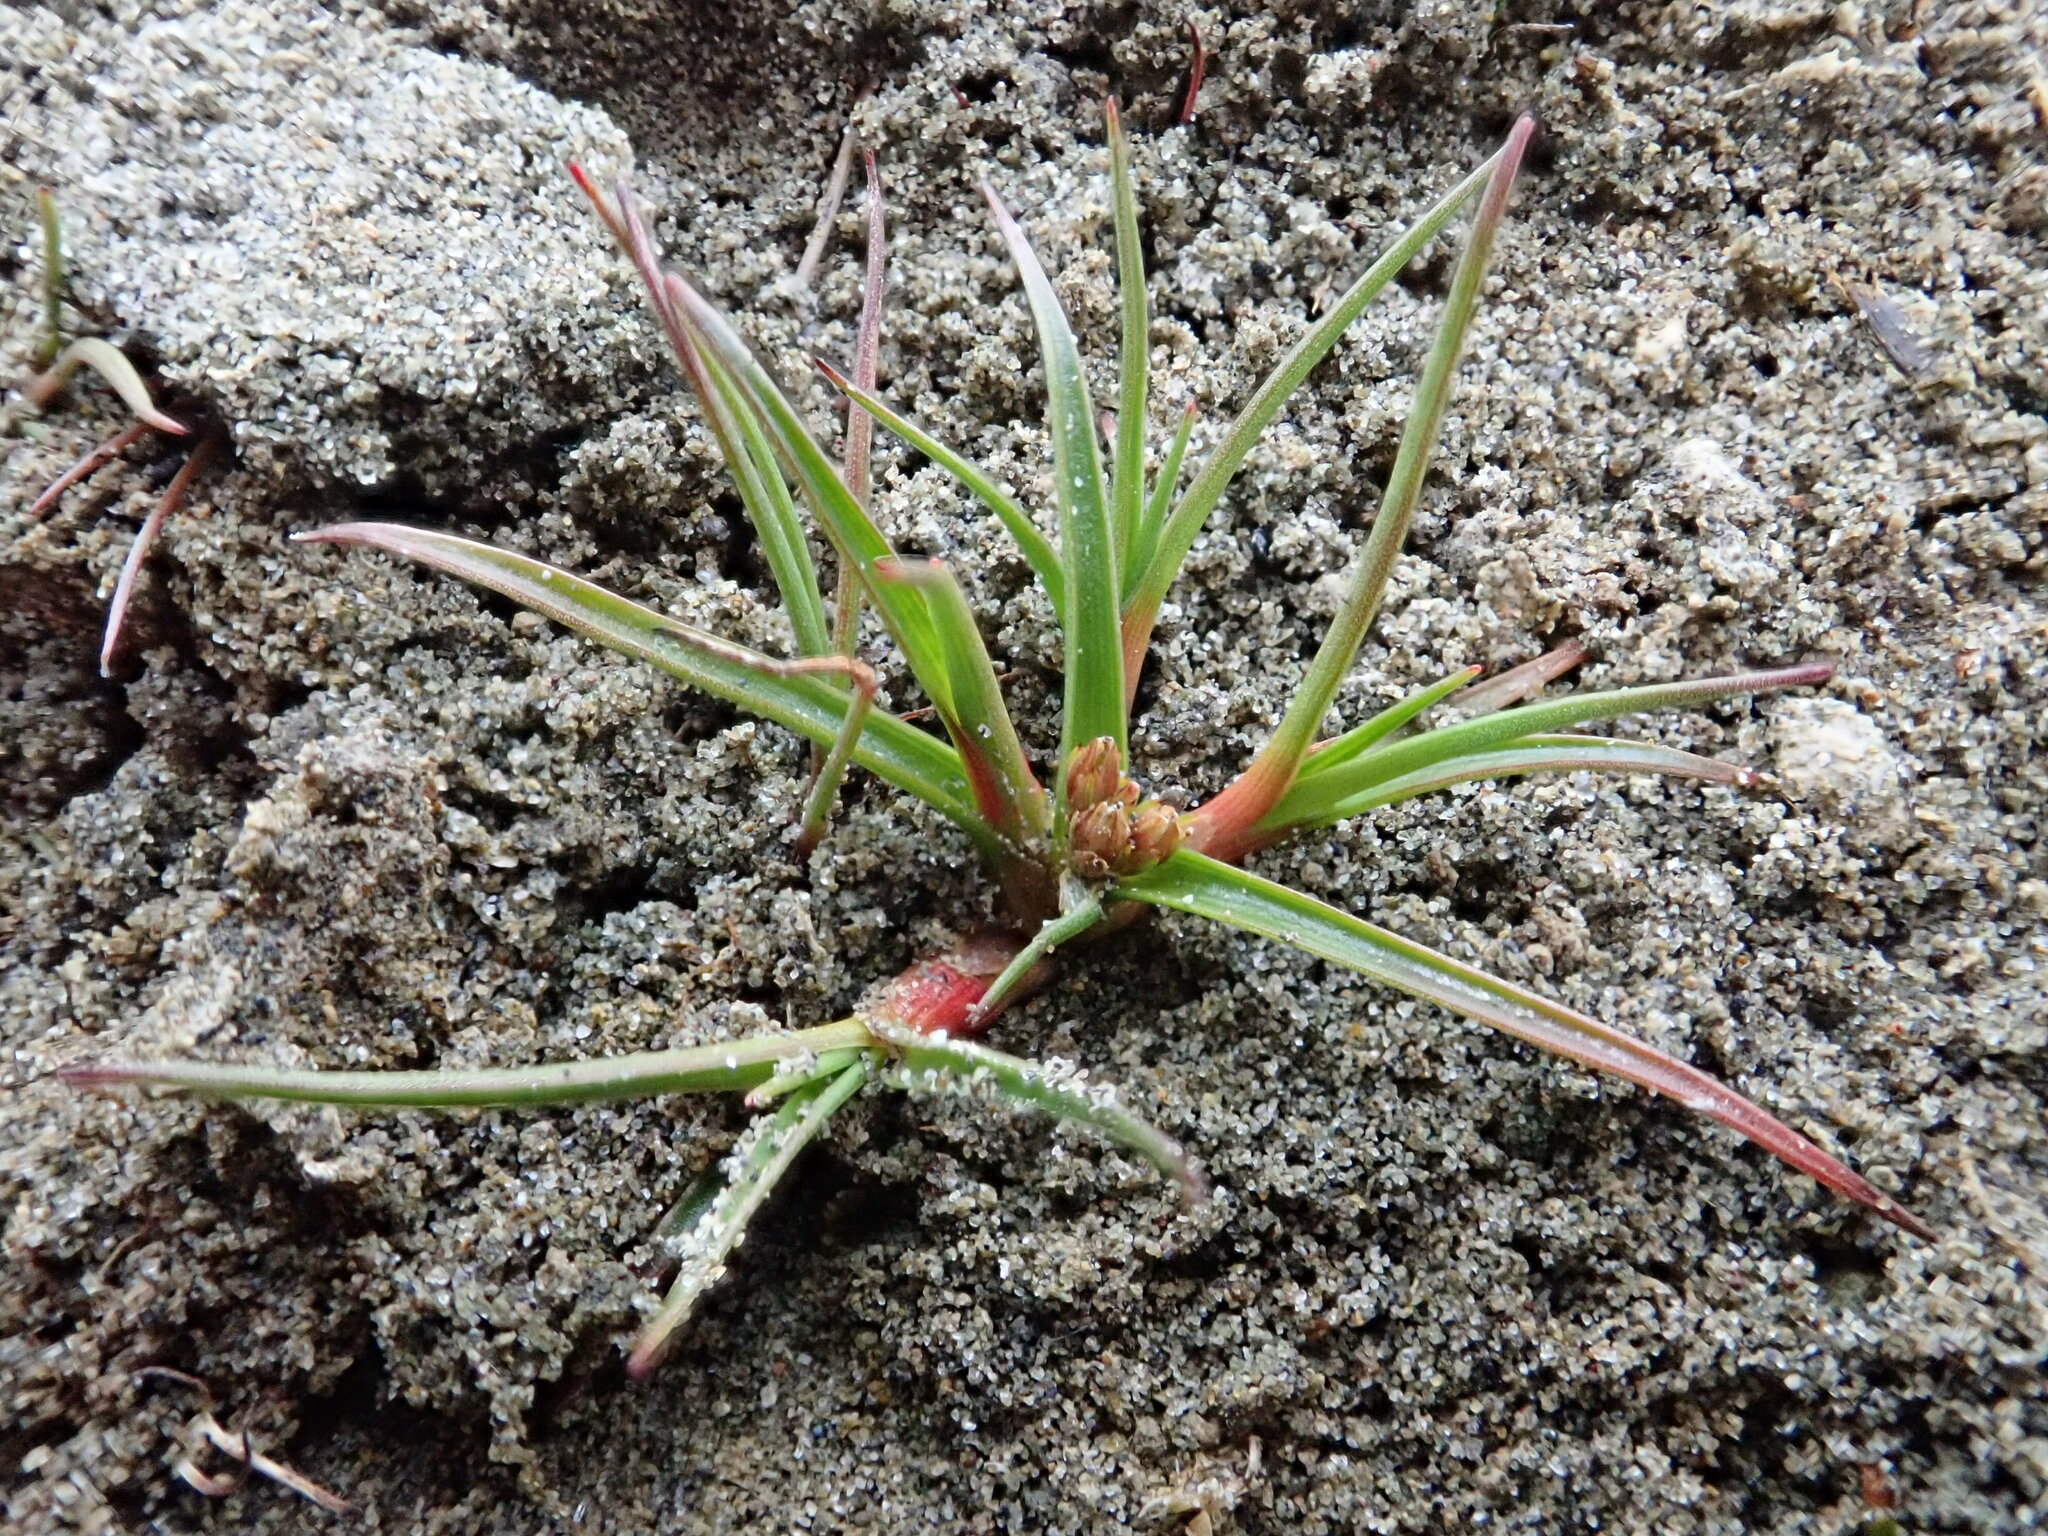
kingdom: Plantae
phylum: Tracheophyta
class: Liliopsida
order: Poales
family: Juncaceae
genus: Juncus
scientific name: Juncus caespiticius
